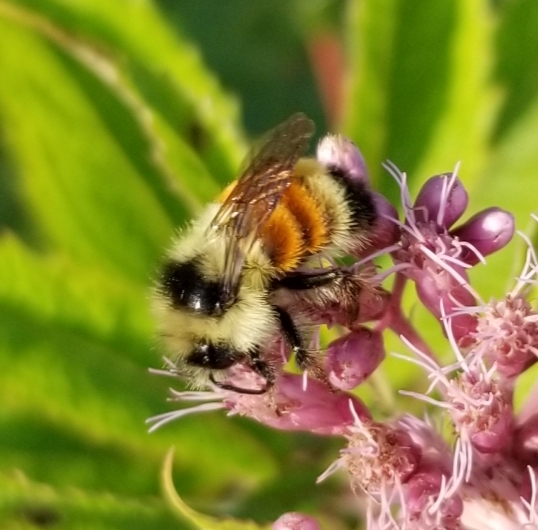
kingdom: Animalia
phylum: Arthropoda
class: Insecta
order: Hymenoptera
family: Apidae
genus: Bombus
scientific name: Bombus ternarius
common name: Tri-colored bumble bee
